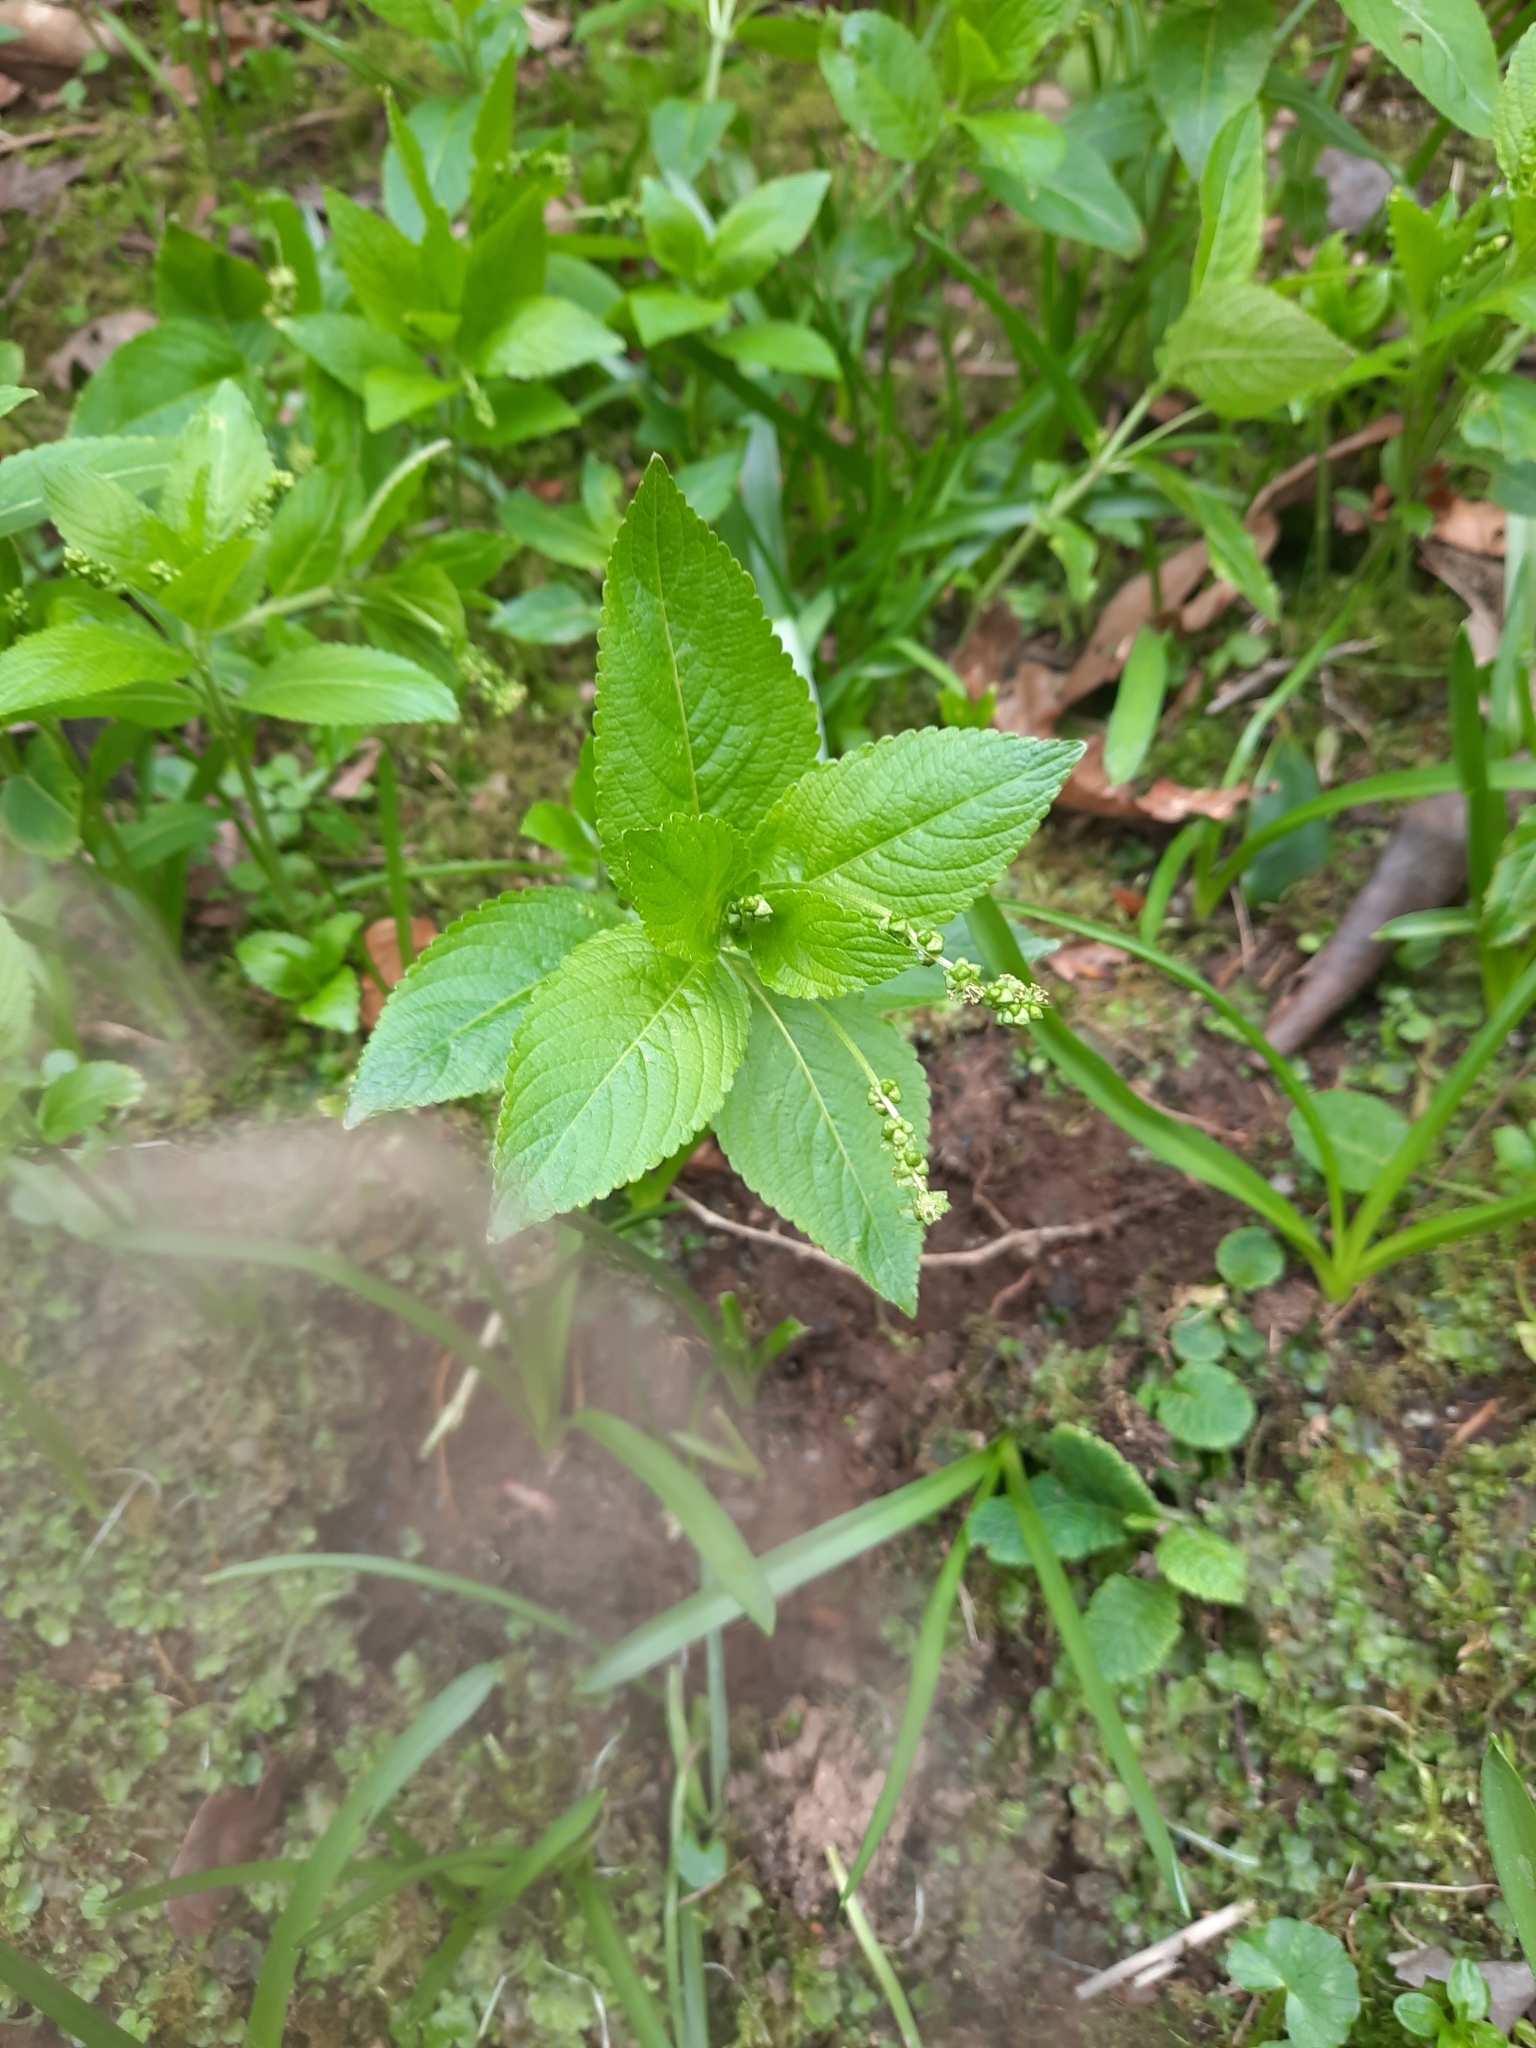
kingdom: Plantae
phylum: Tracheophyta
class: Magnoliopsida
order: Malpighiales
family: Euphorbiaceae
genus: Mercurialis
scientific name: Mercurialis perennis
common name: Dog mercury
